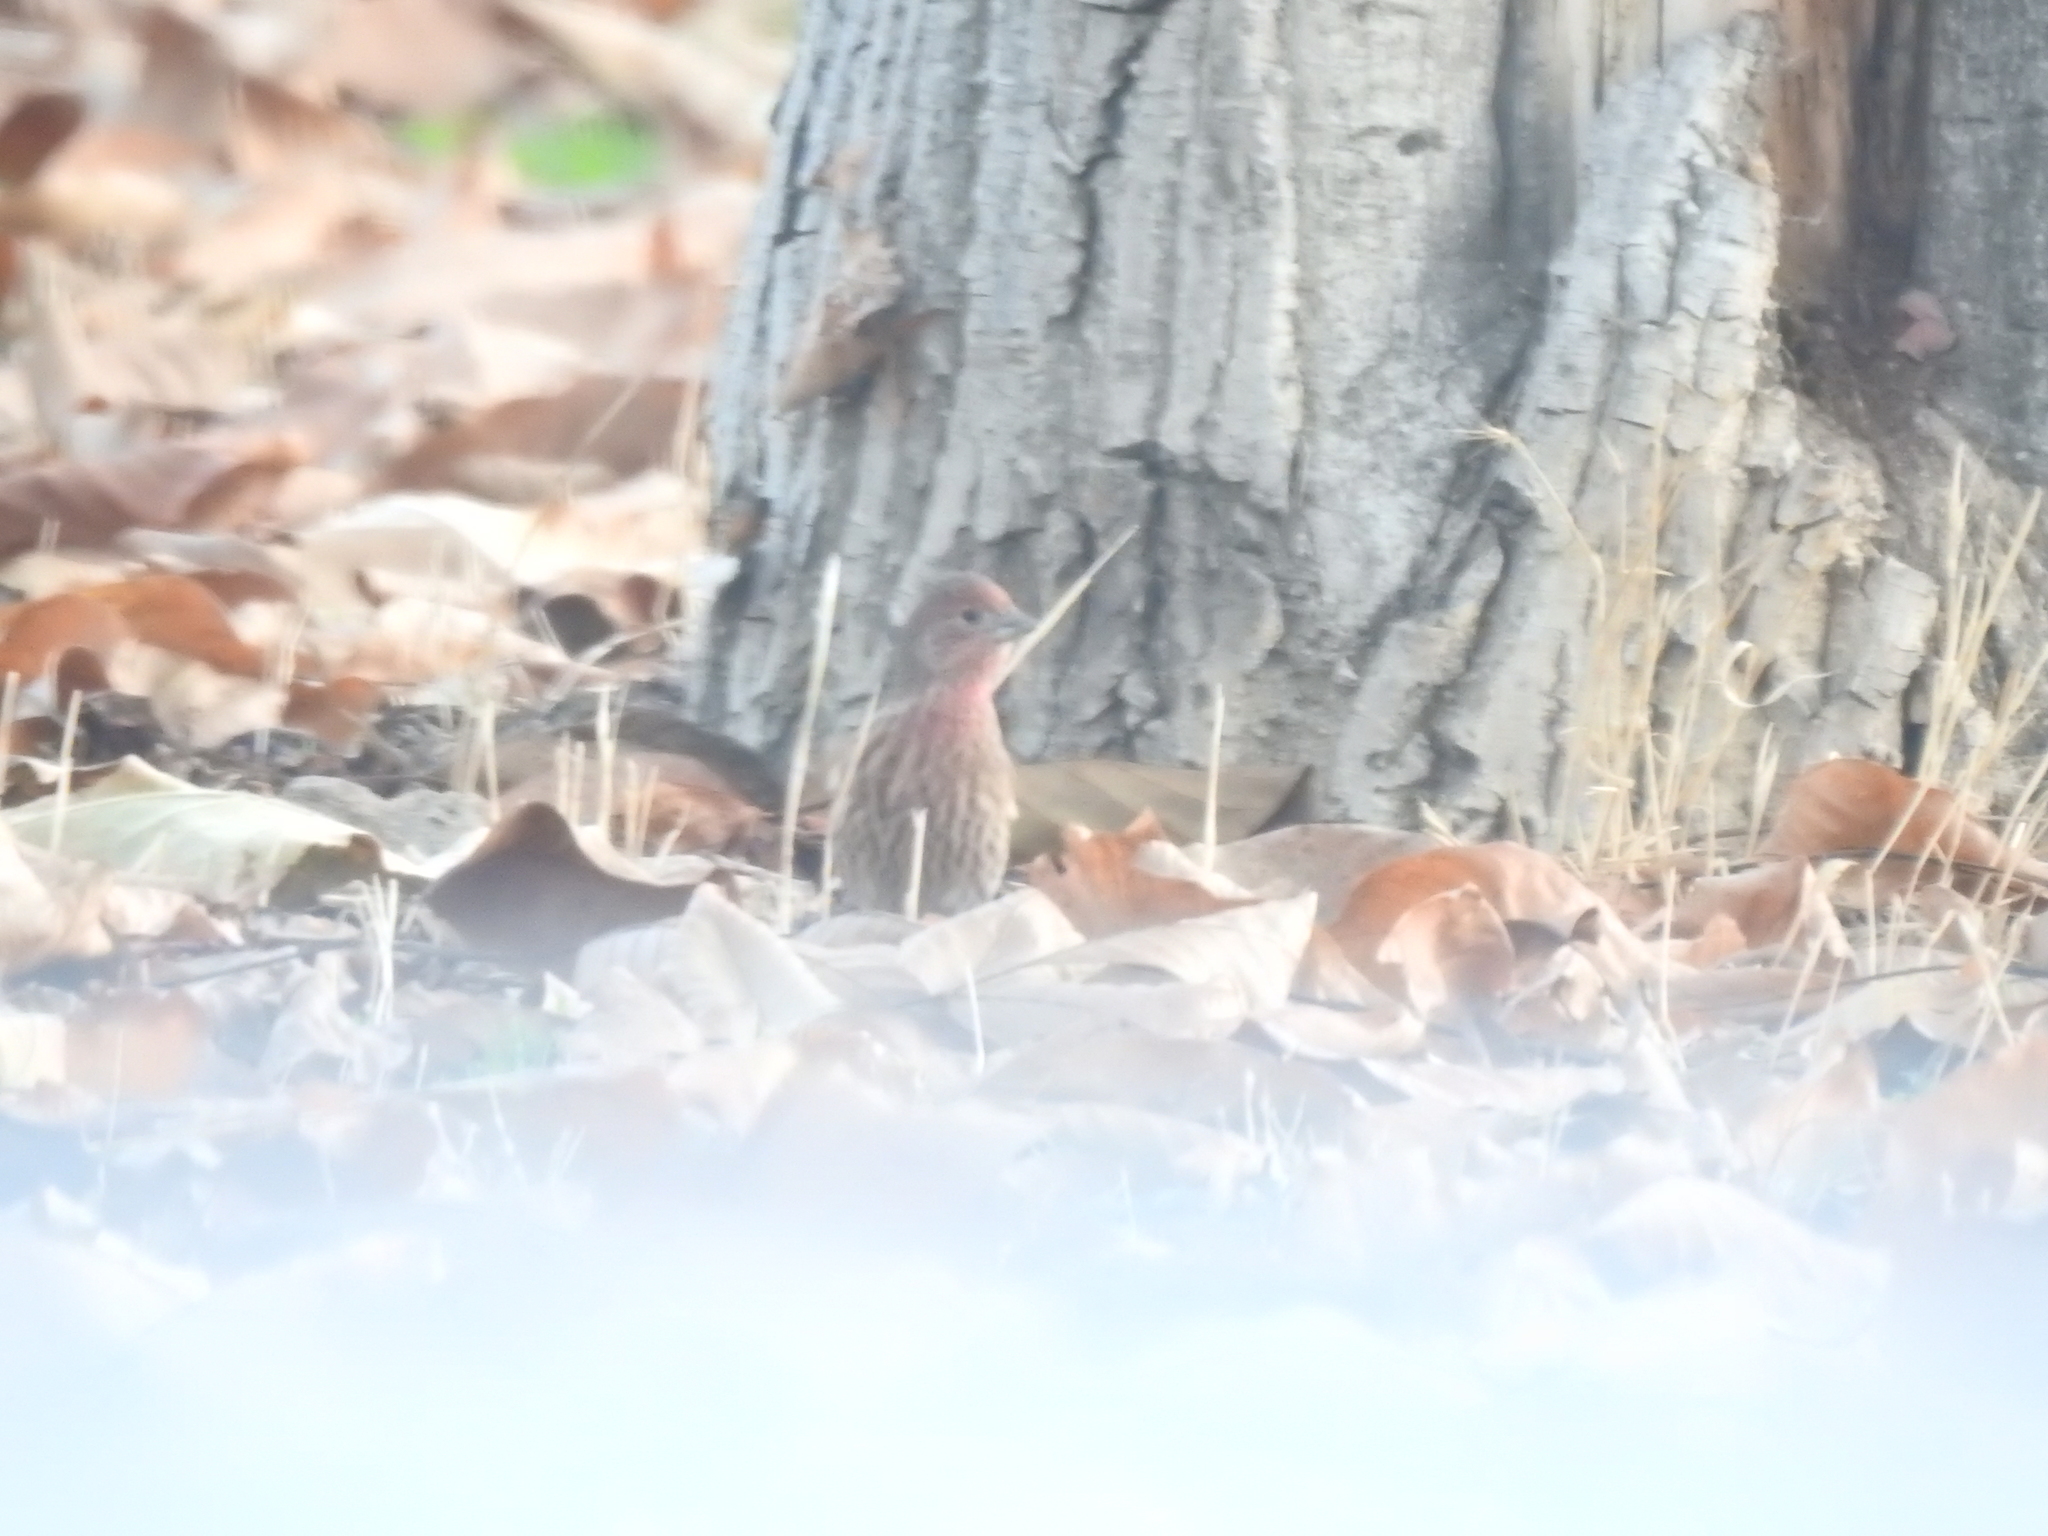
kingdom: Animalia
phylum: Chordata
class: Aves
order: Passeriformes
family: Fringillidae
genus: Haemorhous
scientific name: Haemorhous mexicanus
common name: House finch
